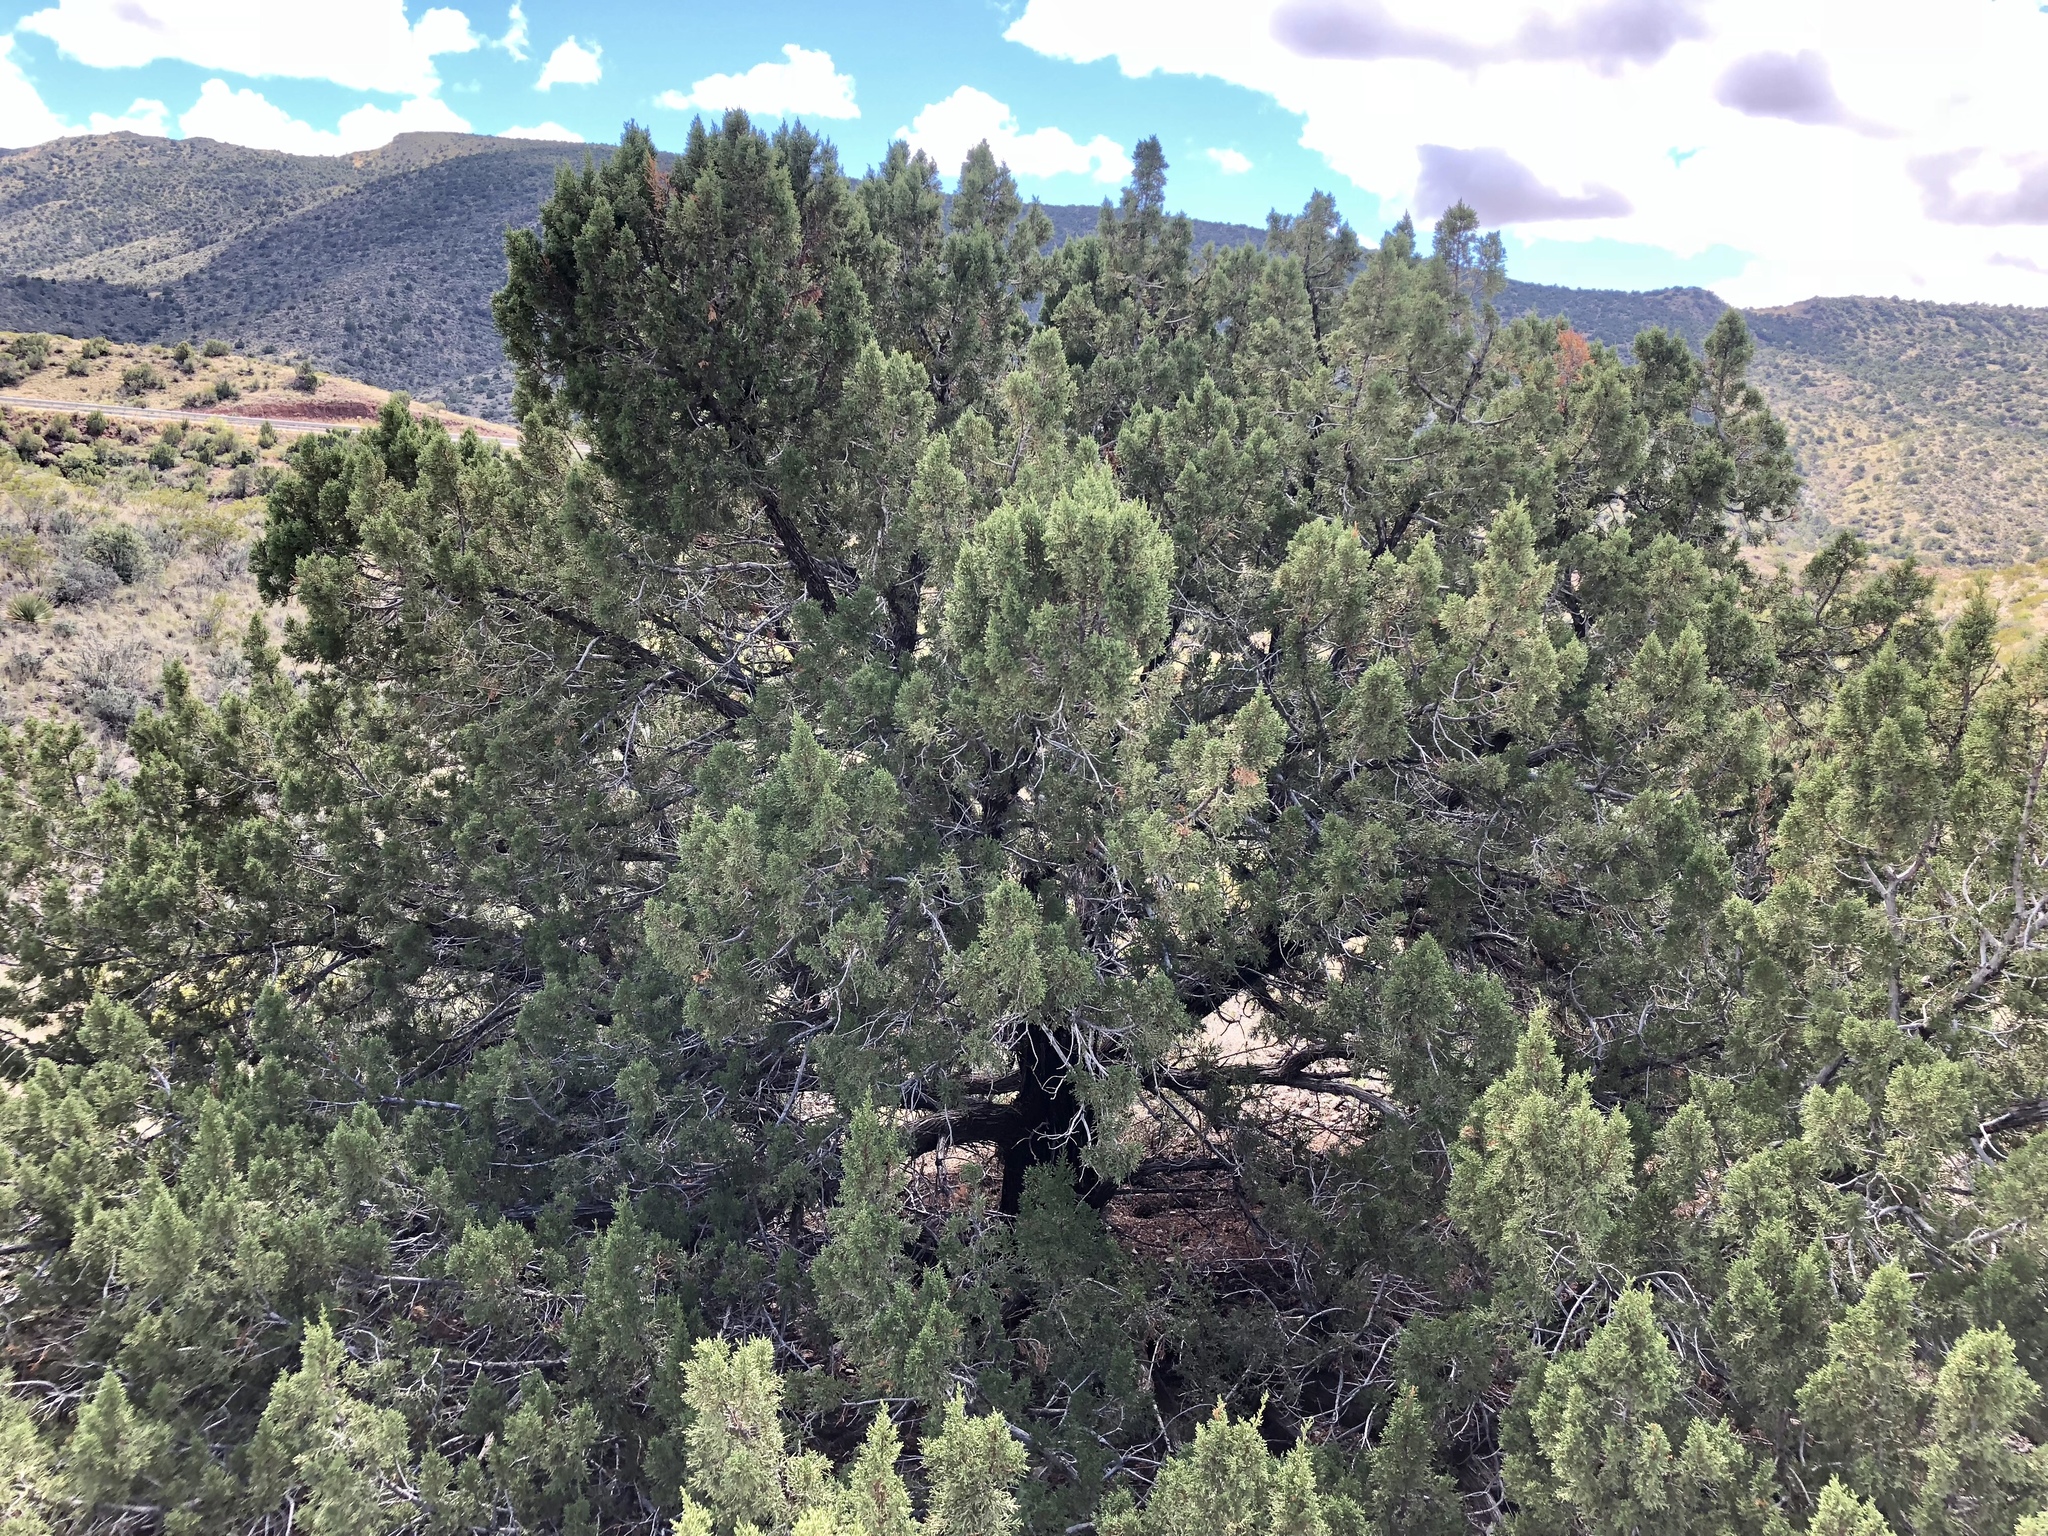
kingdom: Plantae
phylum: Tracheophyta
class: Pinopsida
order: Pinales
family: Cupressaceae
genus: Juniperus
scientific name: Juniperus monosperma
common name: One-seed juniper
